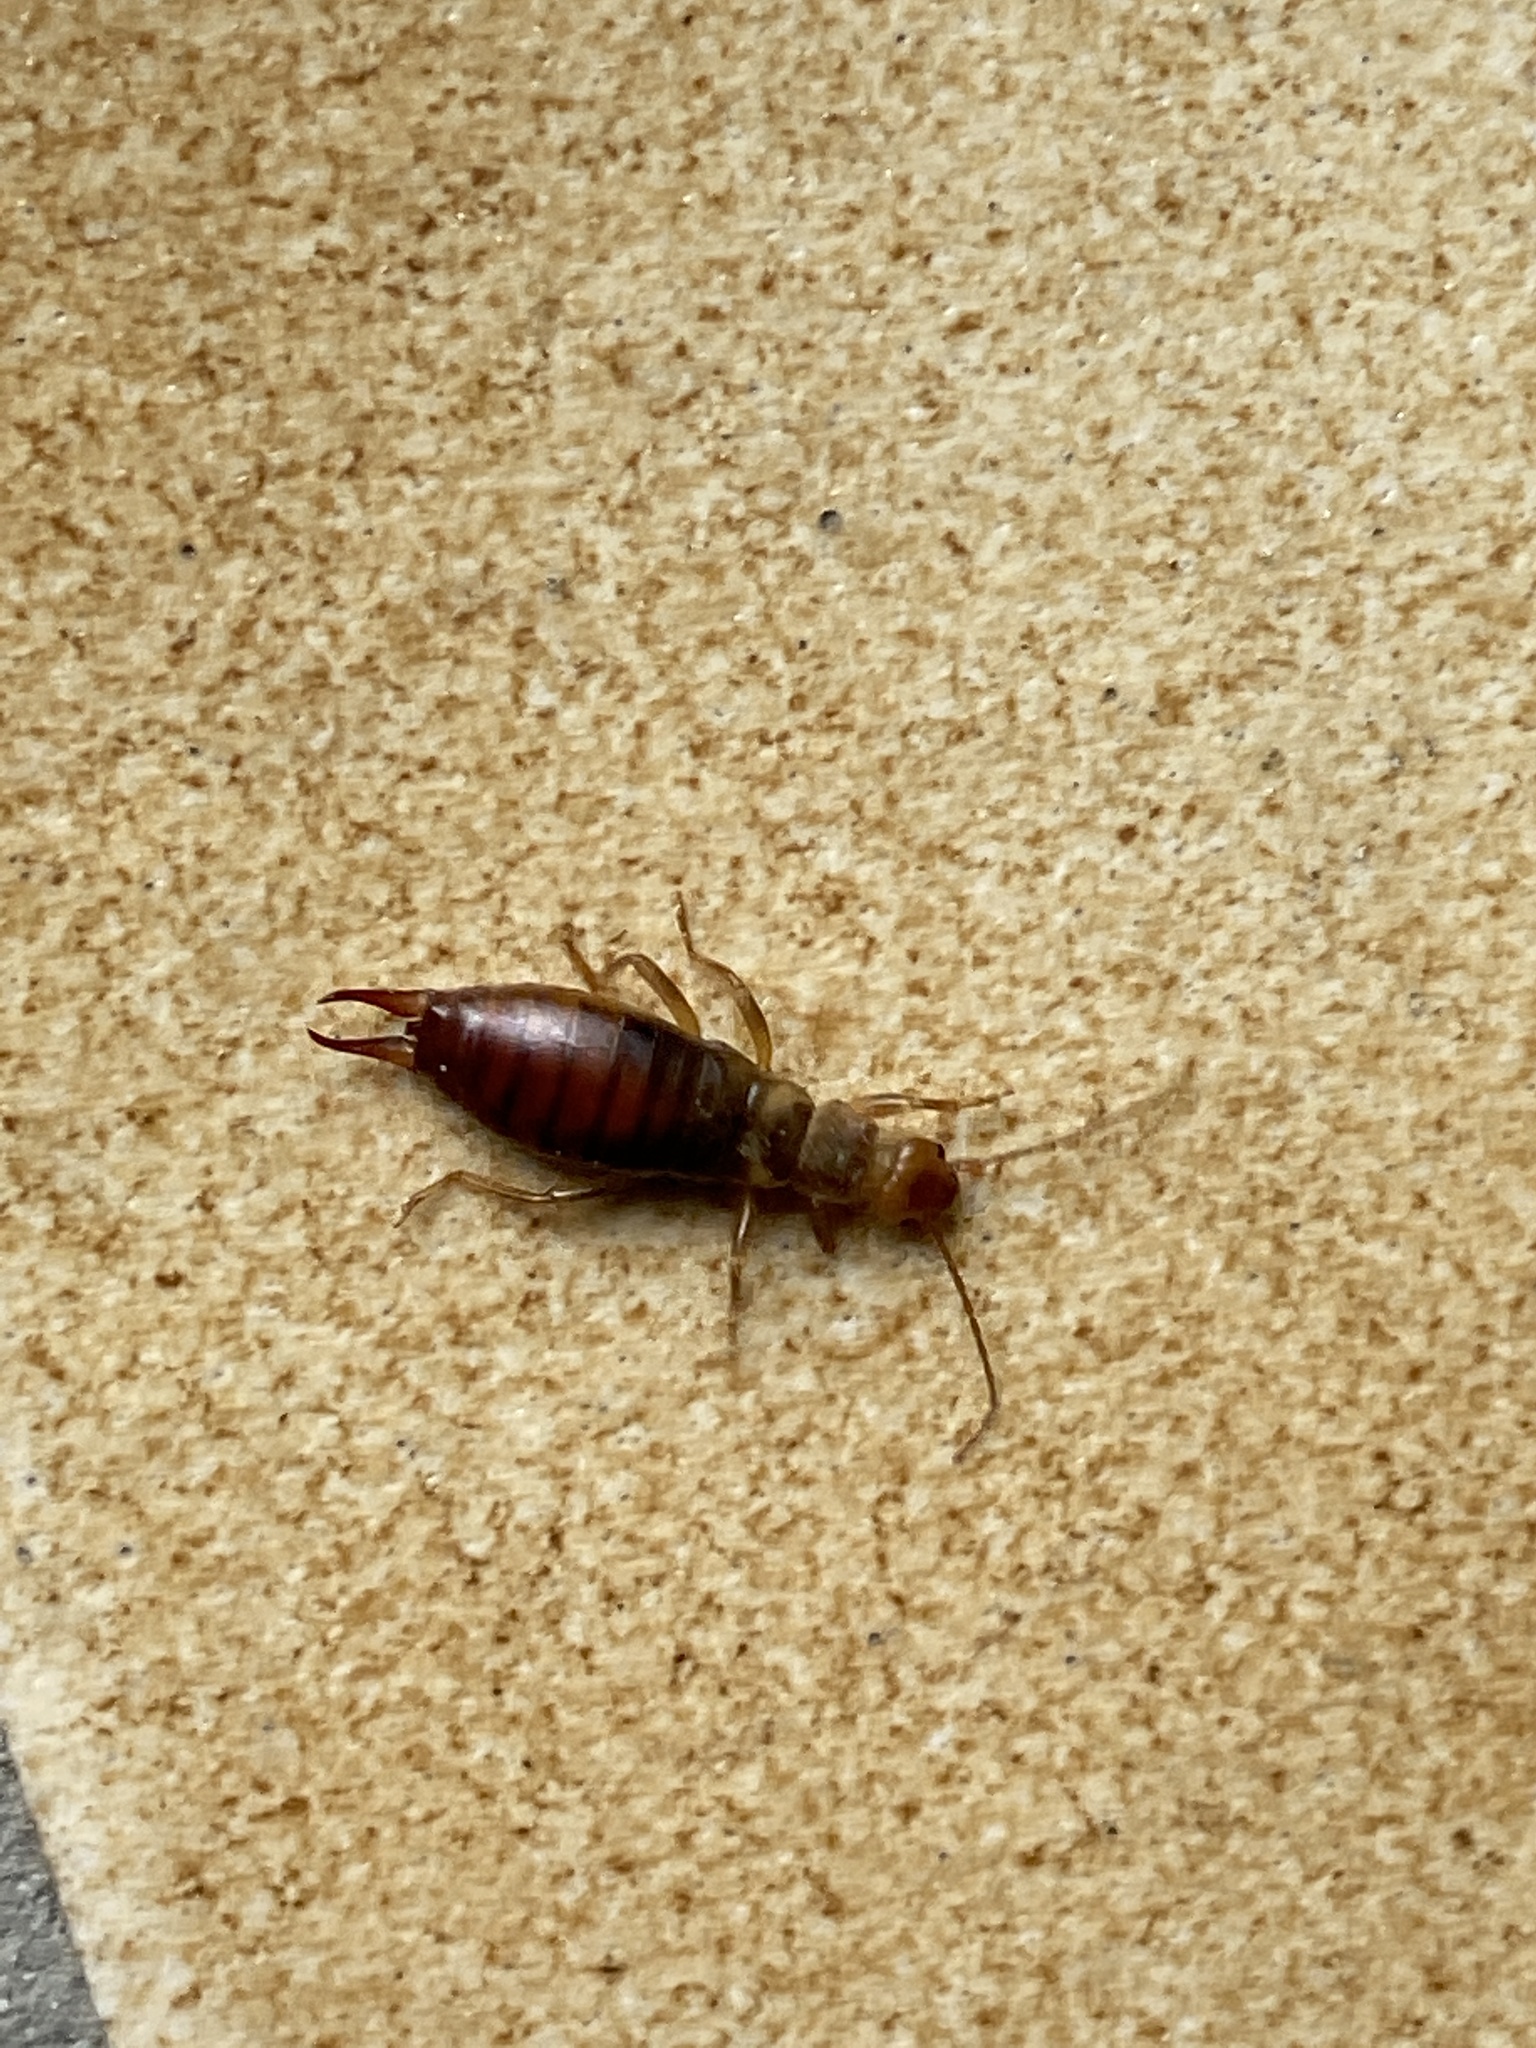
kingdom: Animalia
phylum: Arthropoda
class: Insecta
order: Dermaptera
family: Forficulidae
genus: Apterygida
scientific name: Apterygida albipennis
